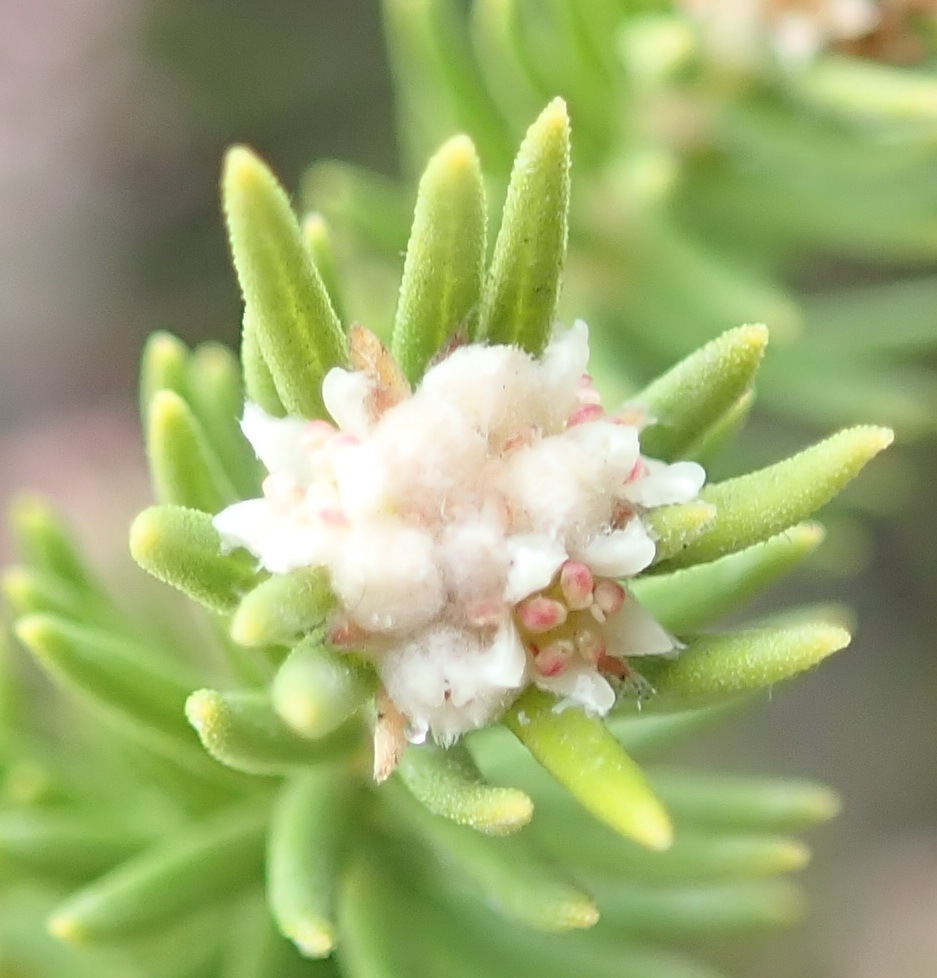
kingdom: Plantae
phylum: Tracheophyta
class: Magnoliopsida
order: Rosales
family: Rhamnaceae
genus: Phylica
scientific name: Phylica wittebergensis
